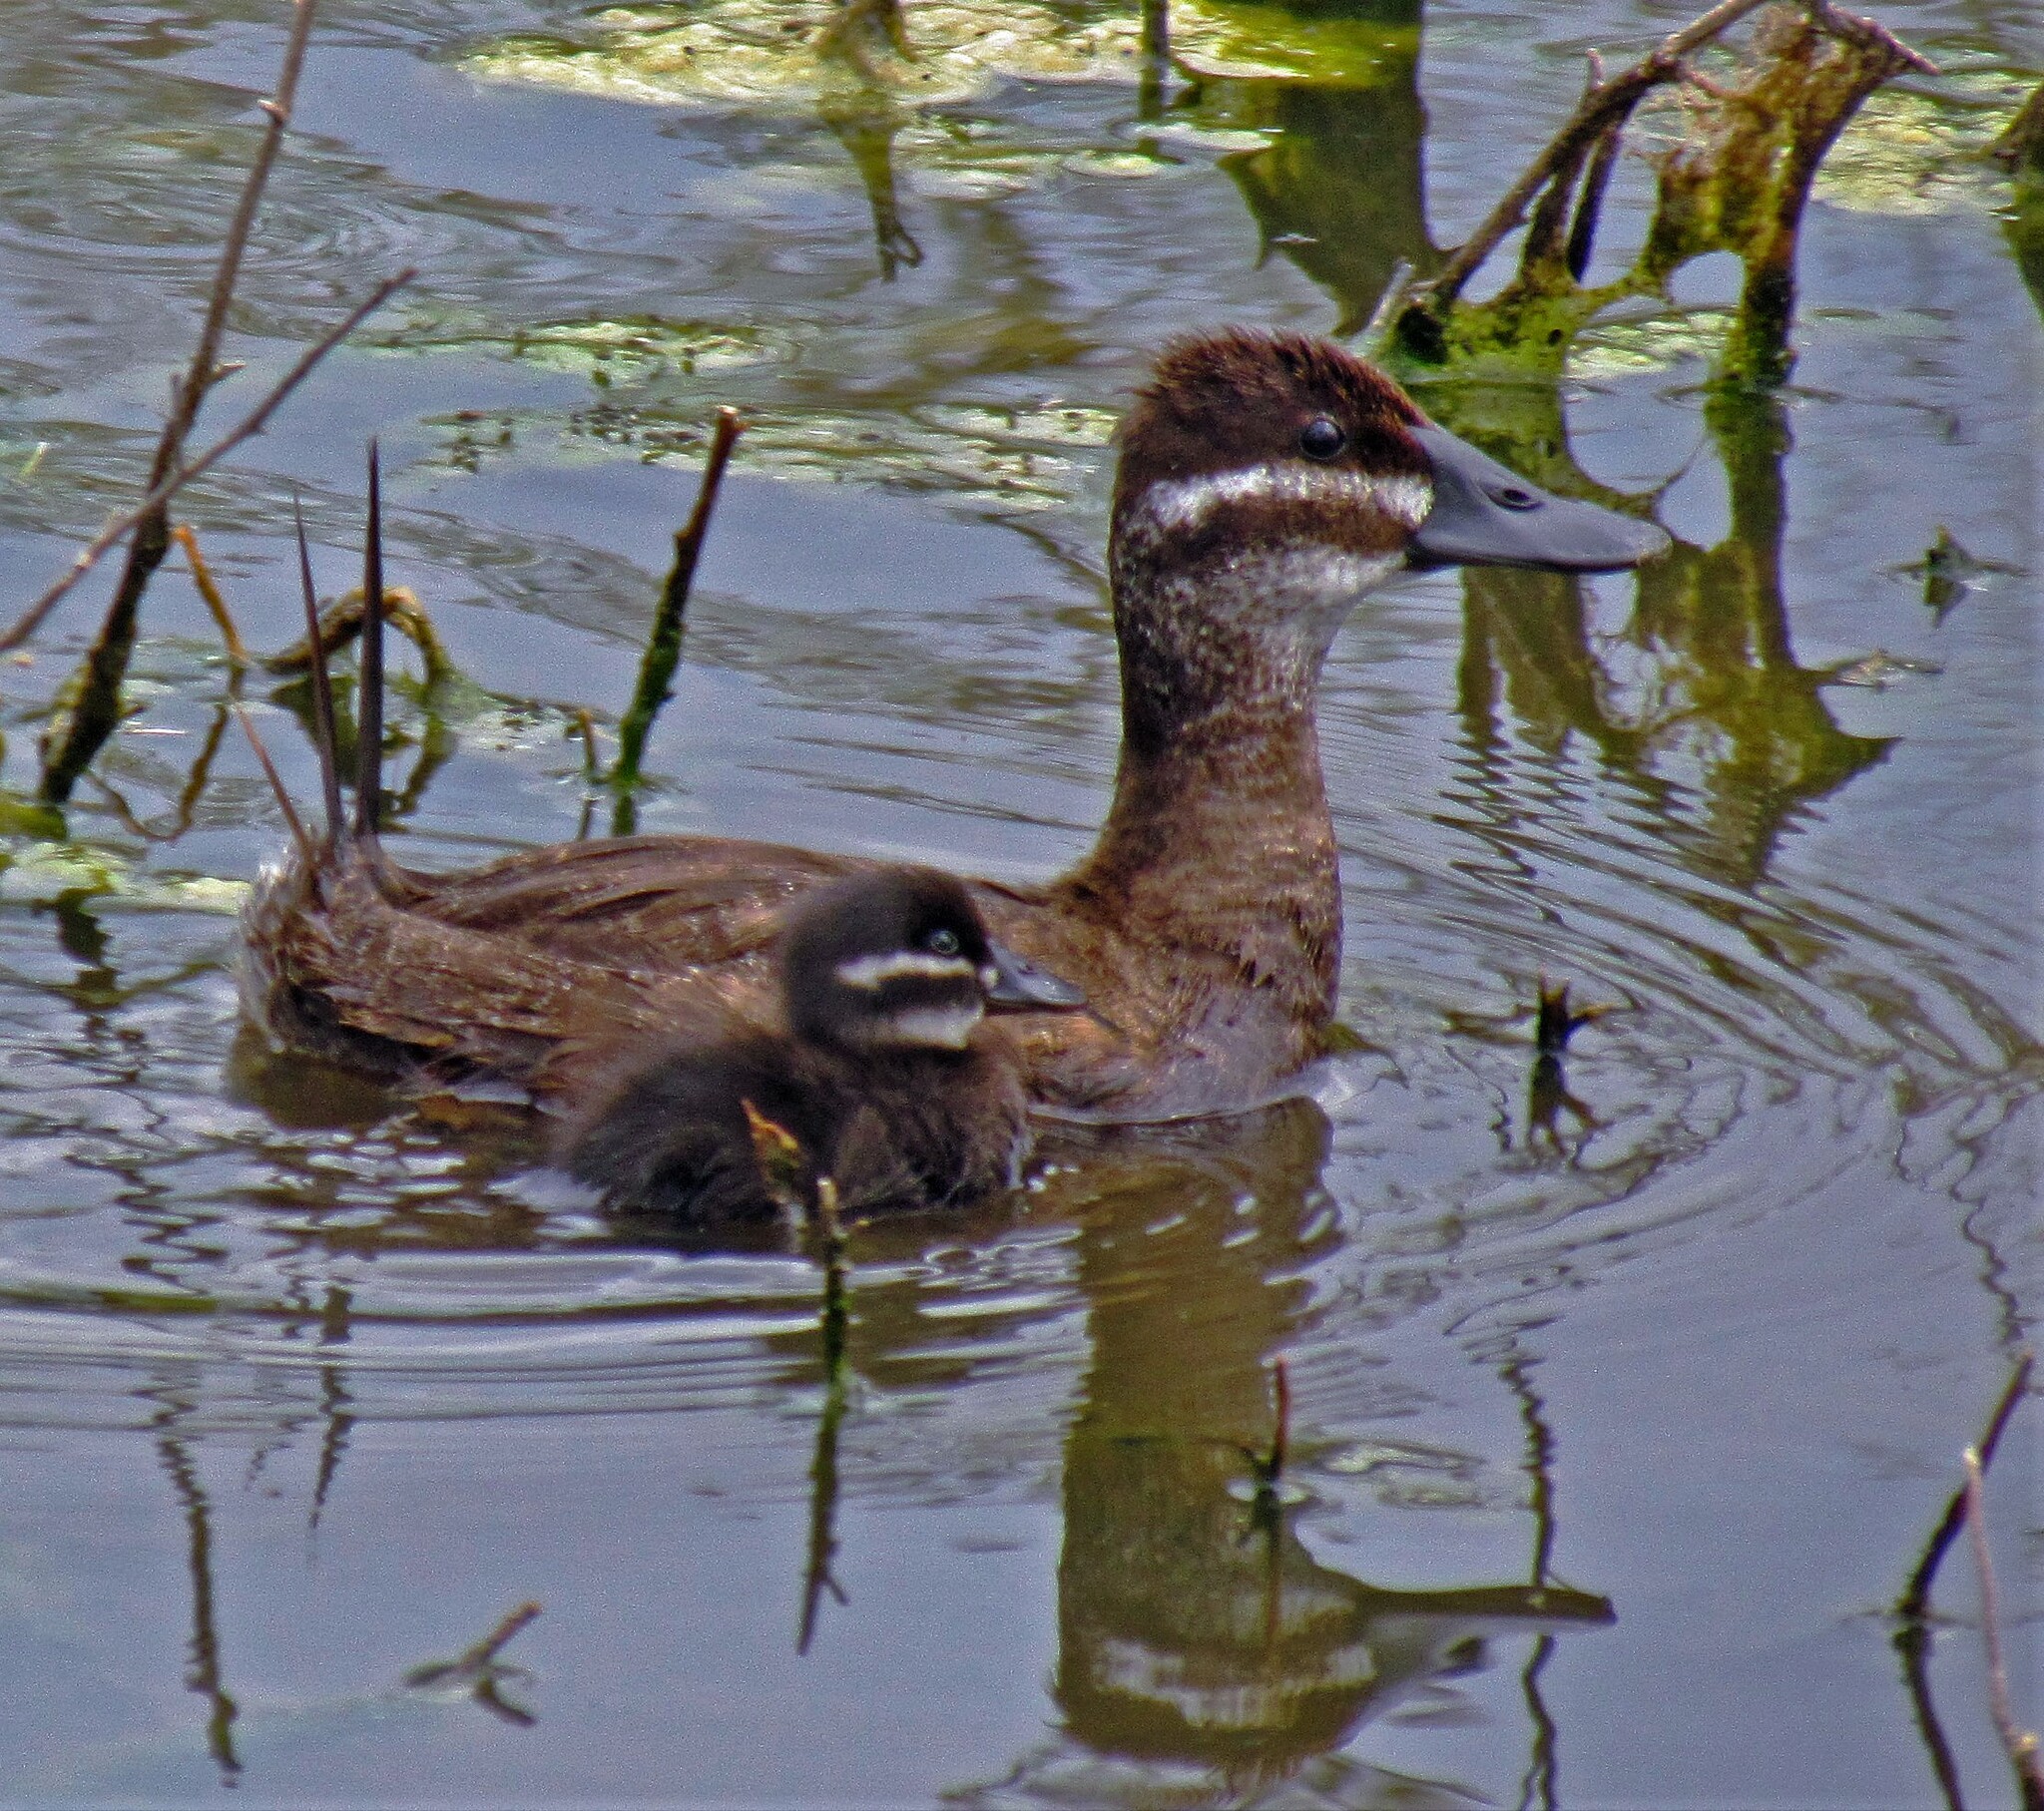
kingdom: Animalia
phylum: Chordata
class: Aves
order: Anseriformes
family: Anatidae
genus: Oxyura
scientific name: Oxyura vittata
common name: Lake duck
